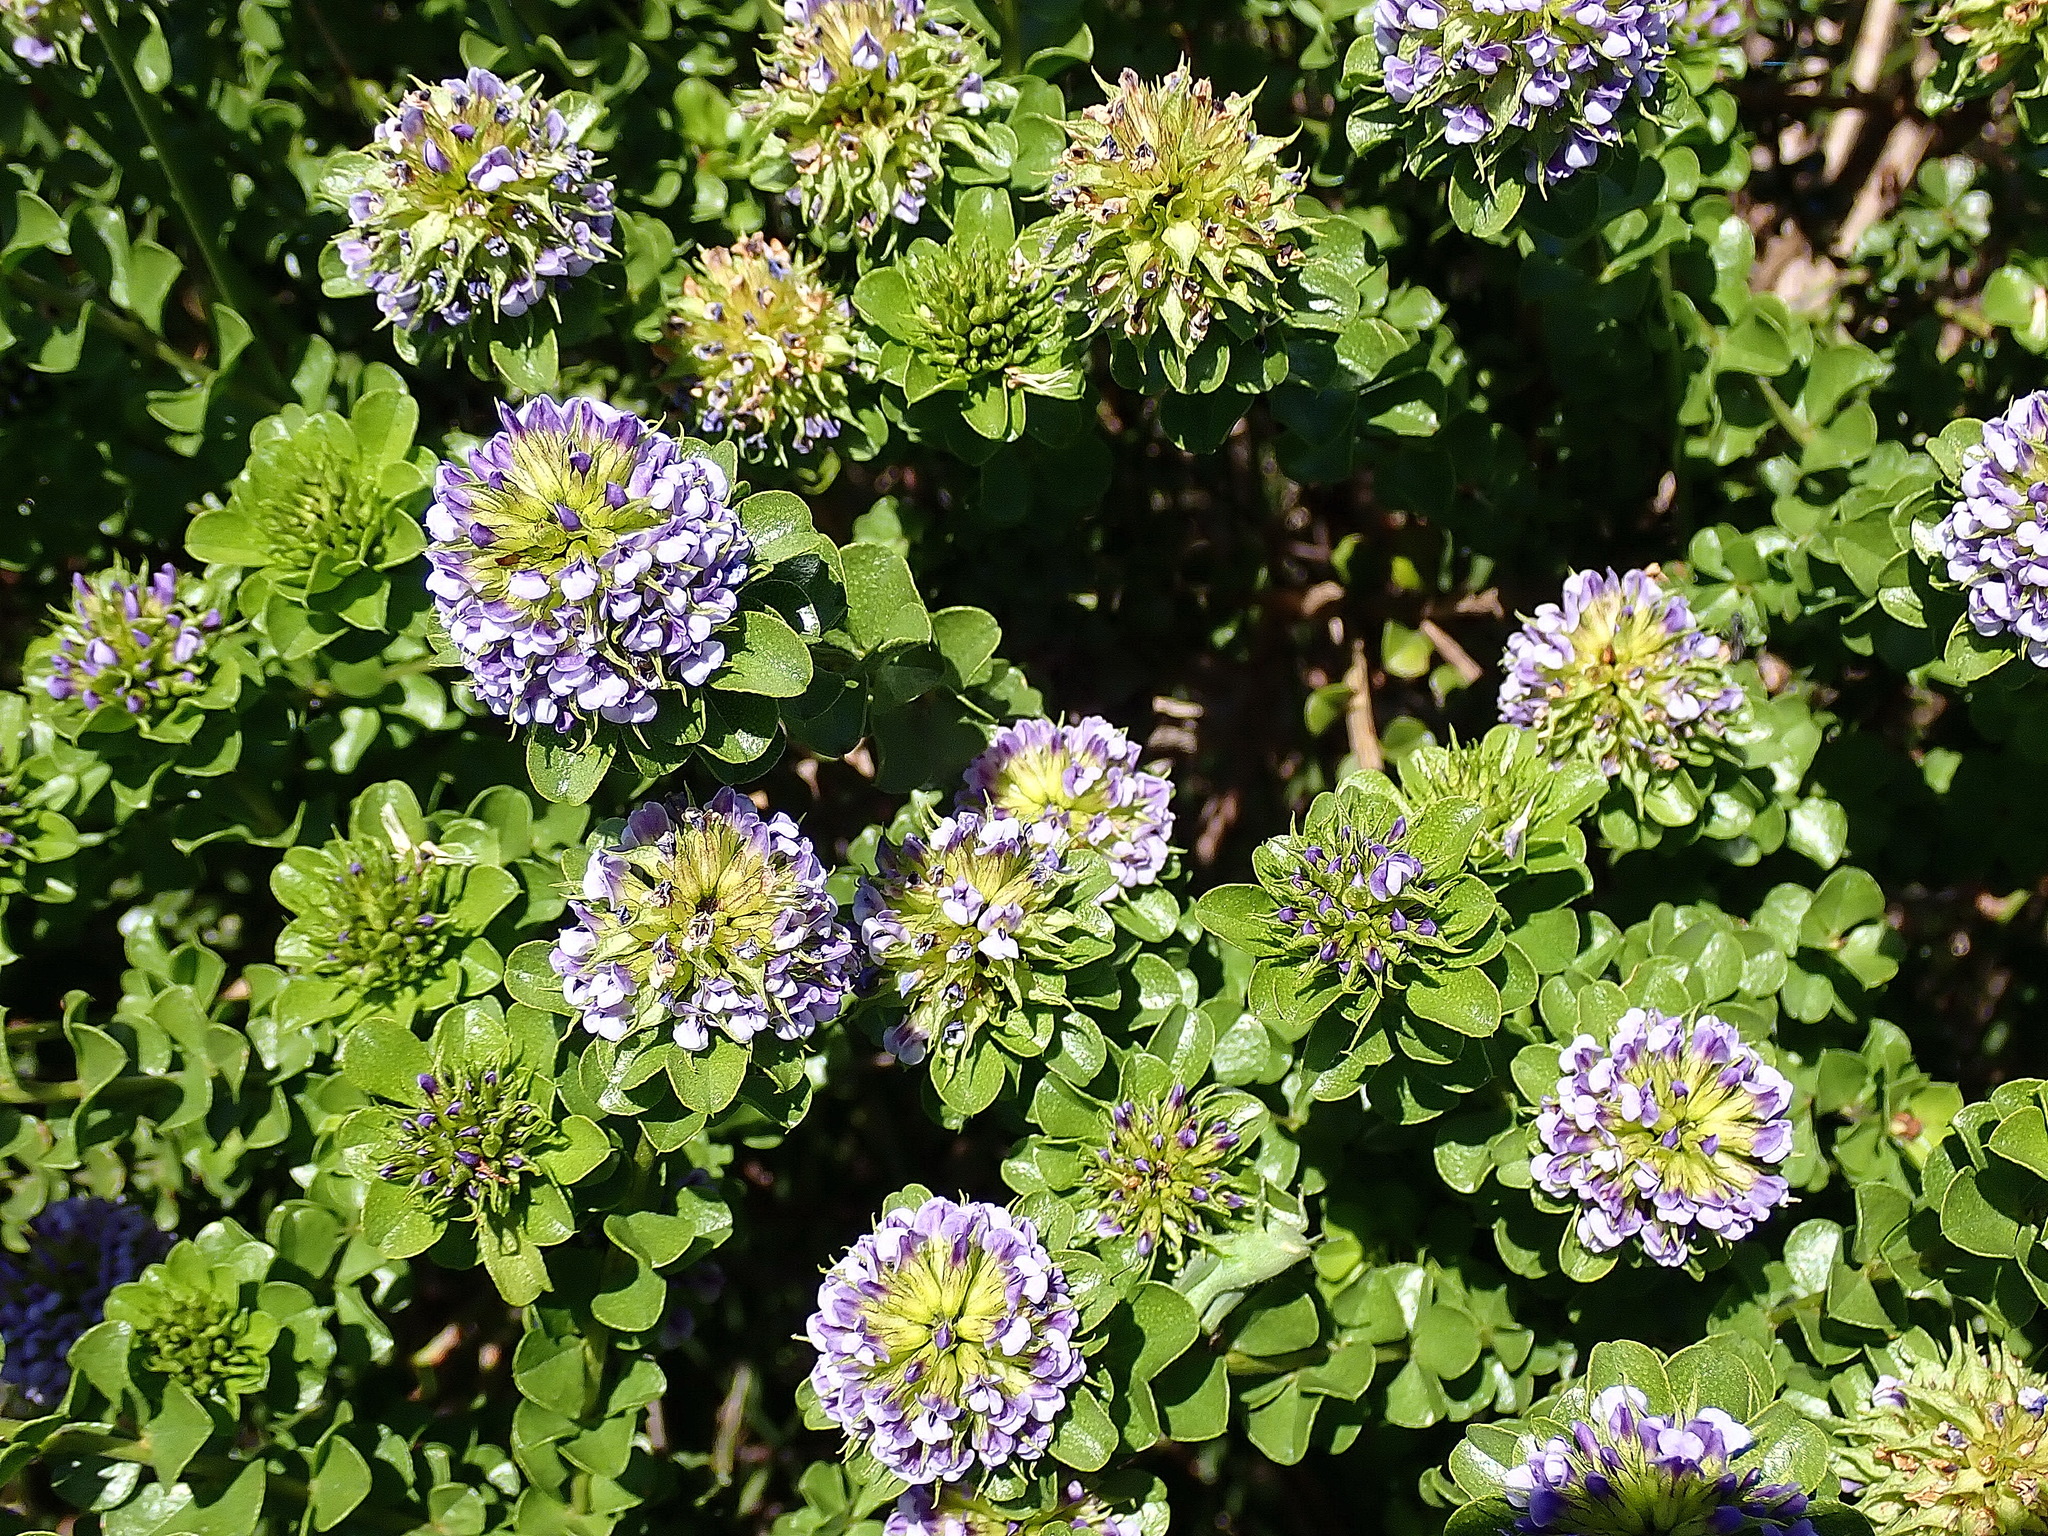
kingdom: Plantae
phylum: Tracheophyta
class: Magnoliopsida
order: Fabales
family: Fabaceae
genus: Psoralea
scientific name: Psoralea acuminata
